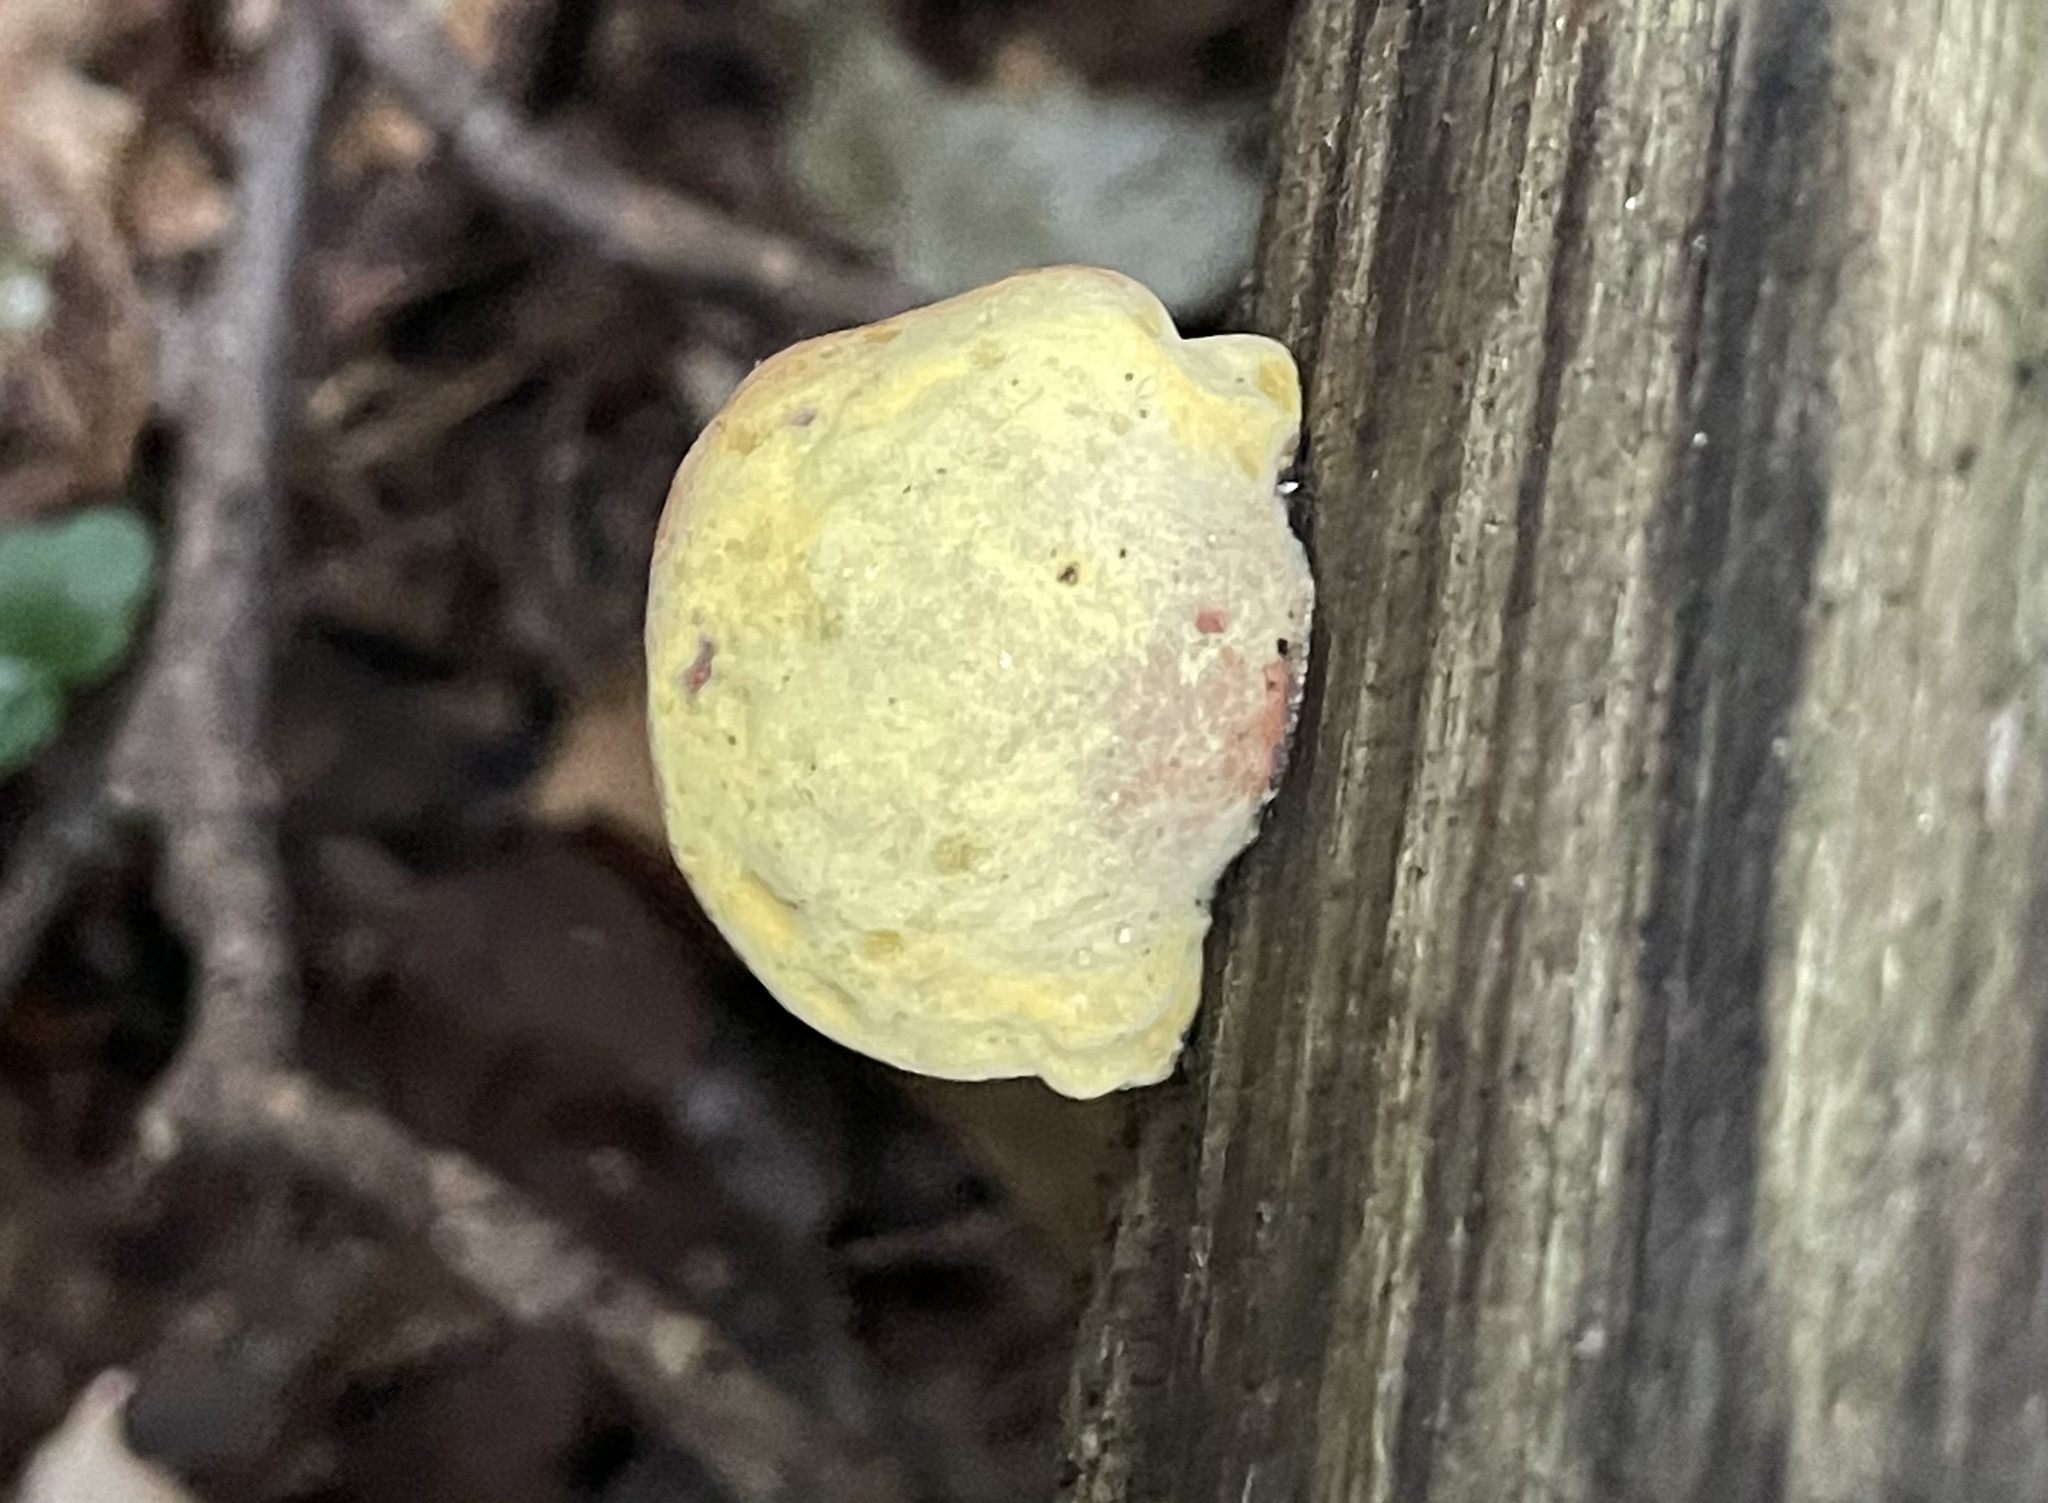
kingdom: Fungi
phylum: Basidiomycota
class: Agaricomycetes
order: Boletales
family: Paxillaceae
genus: Meiorganum
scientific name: Meiorganum curtisii
